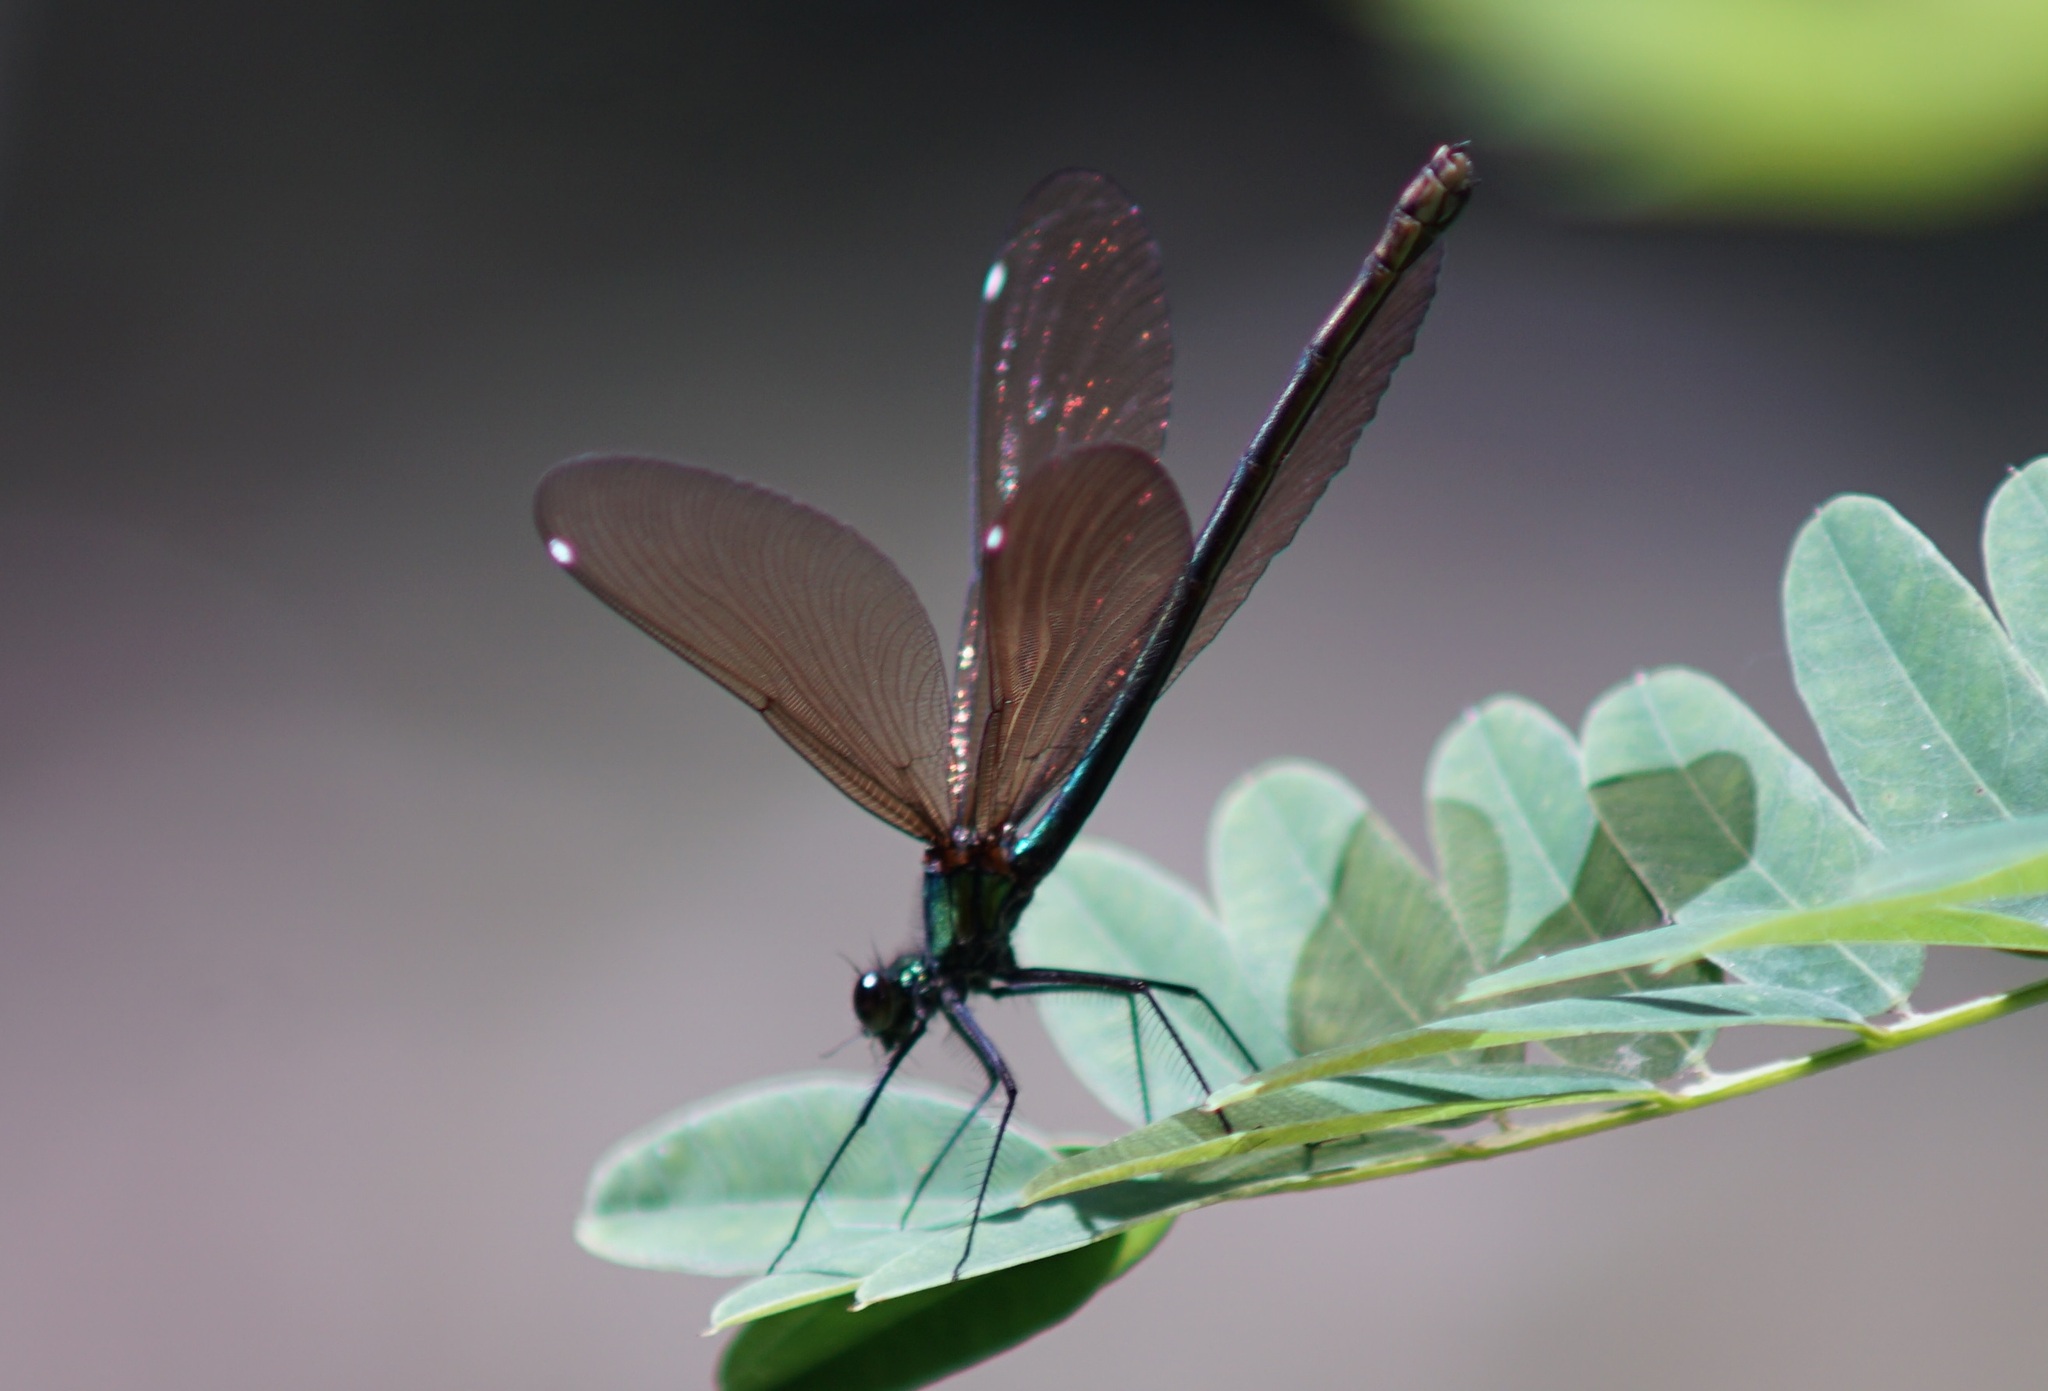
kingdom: Animalia
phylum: Arthropoda
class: Insecta
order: Odonata
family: Calopterygidae
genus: Calopteryx
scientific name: Calopteryx virgo
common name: Beautiful demoiselle
